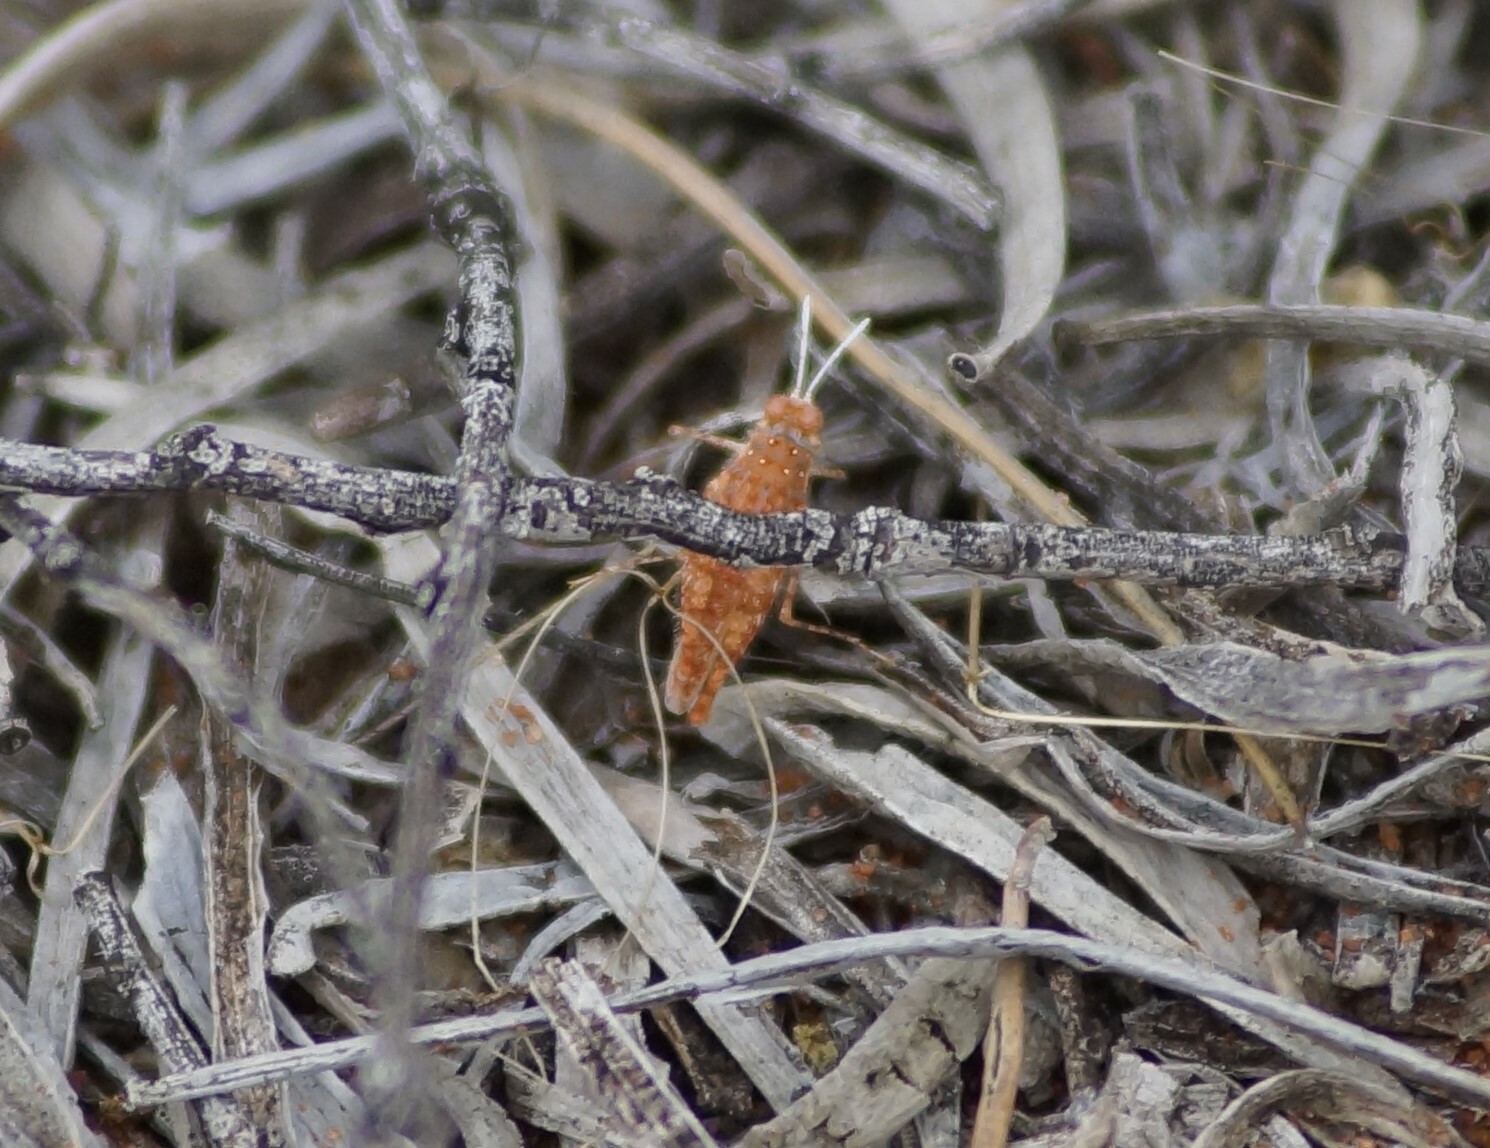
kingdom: Animalia
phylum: Arthropoda
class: Insecta
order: Orthoptera
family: Acrididae
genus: Urnisiella
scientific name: Urnisiella rubropunctata
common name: Long-legged sandhopper
